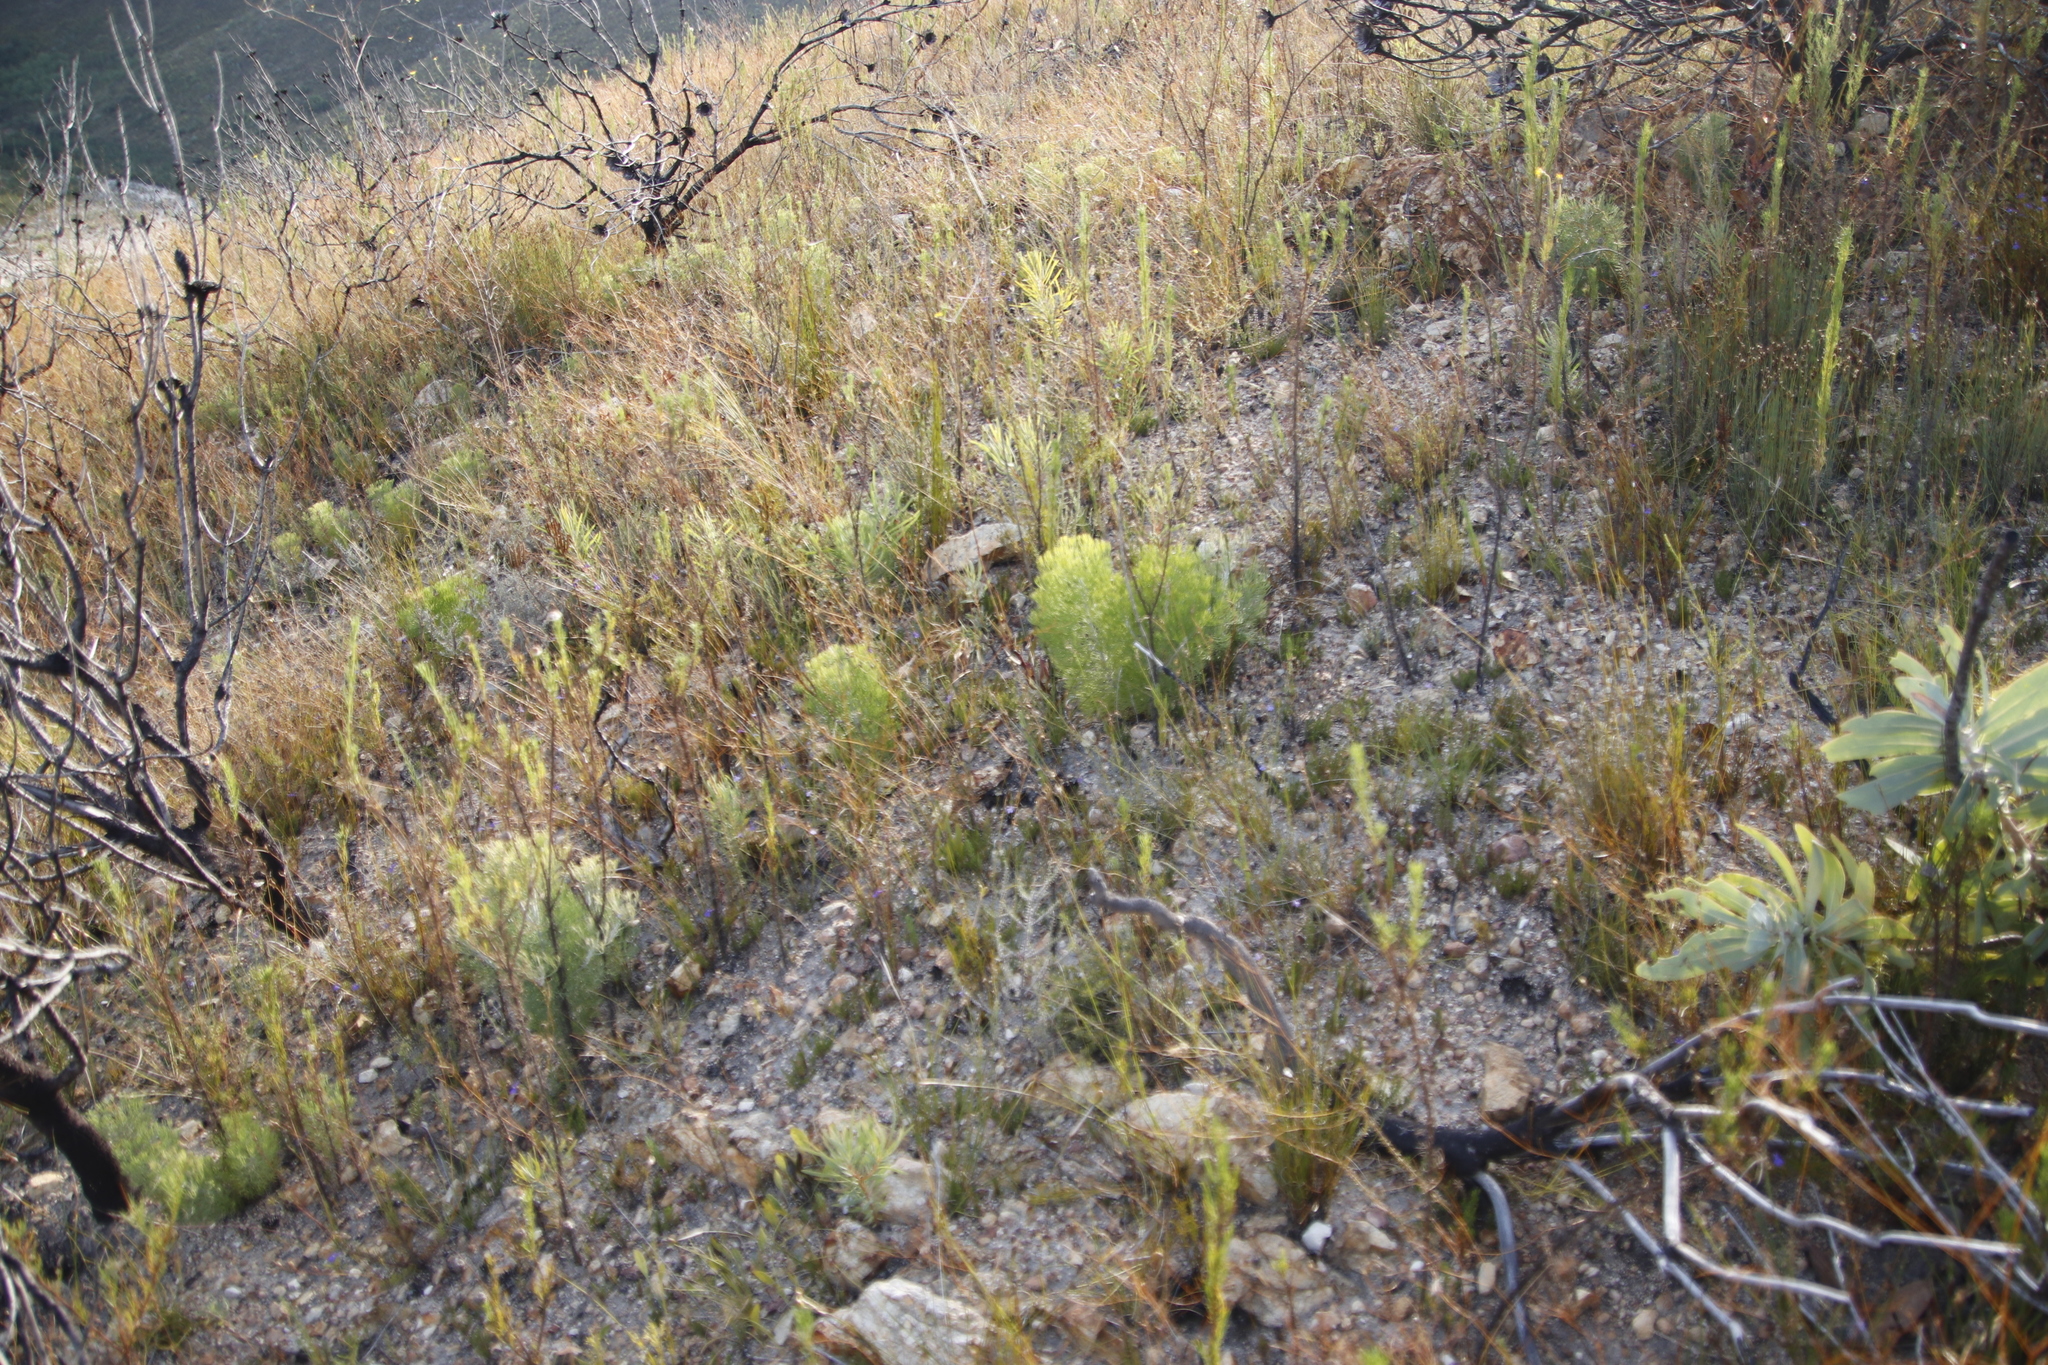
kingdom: Plantae
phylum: Tracheophyta
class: Magnoliopsida
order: Proteales
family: Proteaceae
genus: Paranomus
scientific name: Paranomus dispersus
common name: Long-head sceptre
